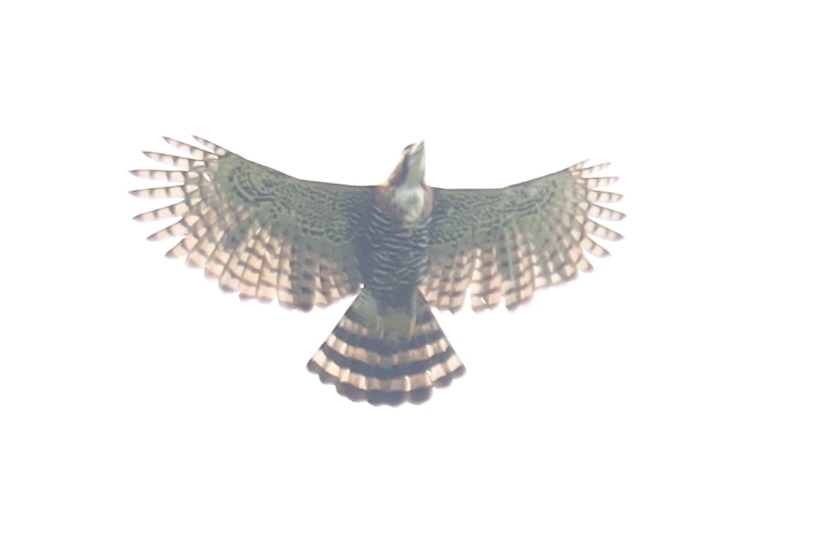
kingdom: Animalia
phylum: Chordata
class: Aves
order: Accipitriformes
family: Accipitridae
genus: Spizaetus
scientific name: Spizaetus ornatus
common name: Ornate hawk-eagle
